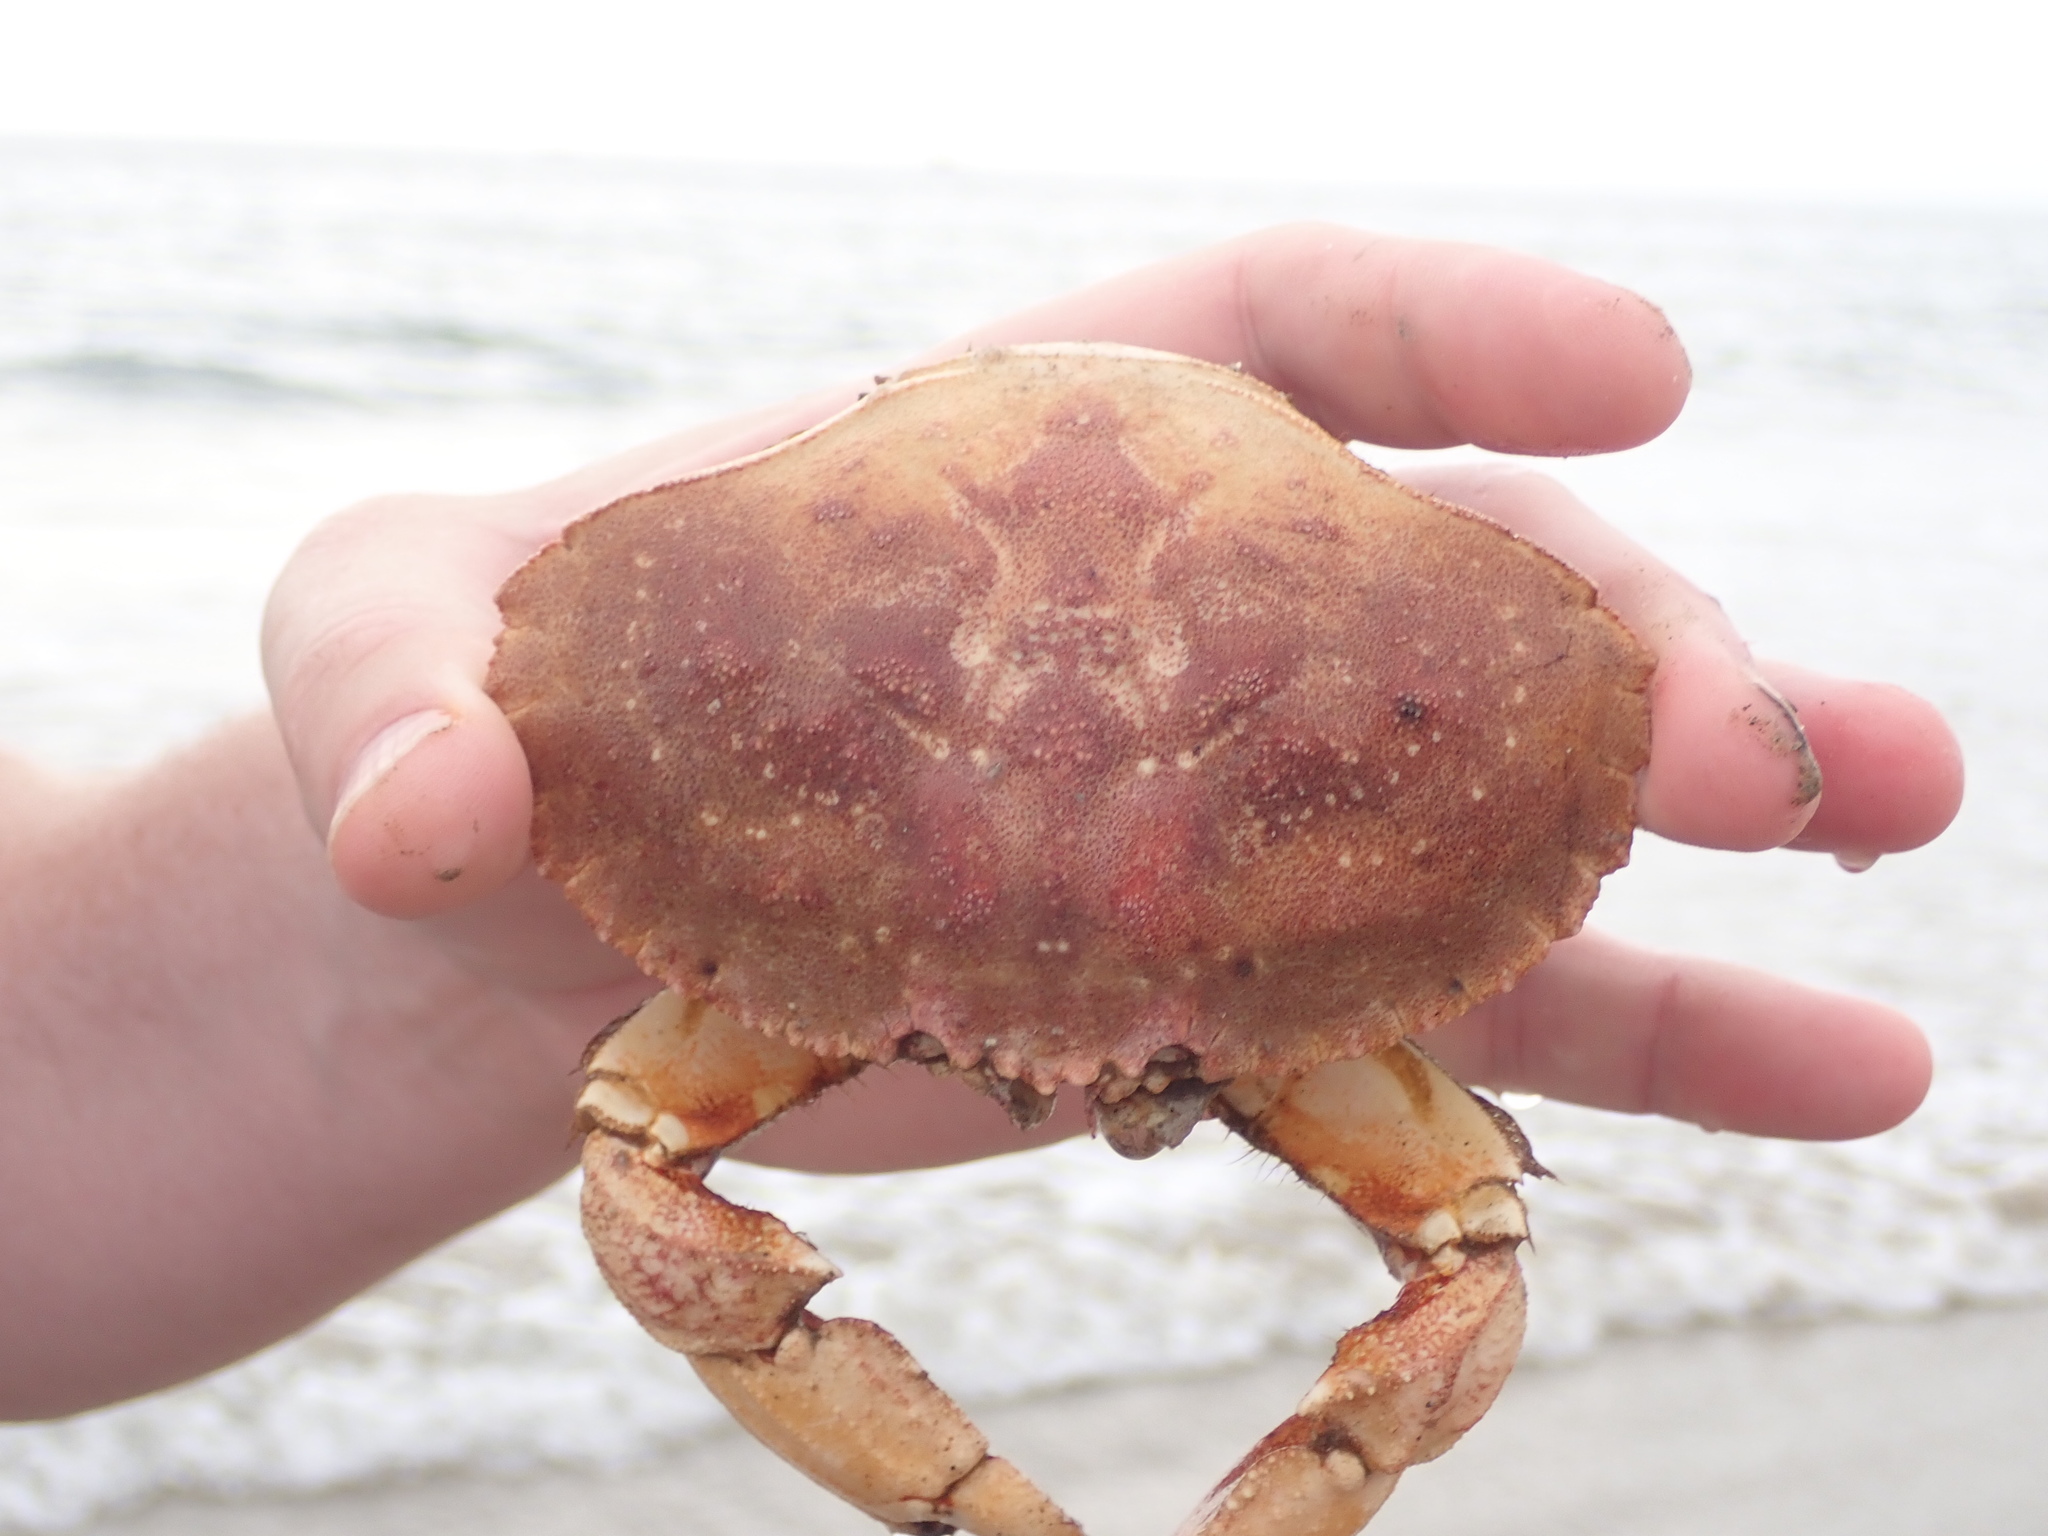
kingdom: Animalia
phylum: Arthropoda
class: Malacostraca
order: Decapoda
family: Cancridae
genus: Cancer
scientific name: Cancer borealis
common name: Jonah crab
